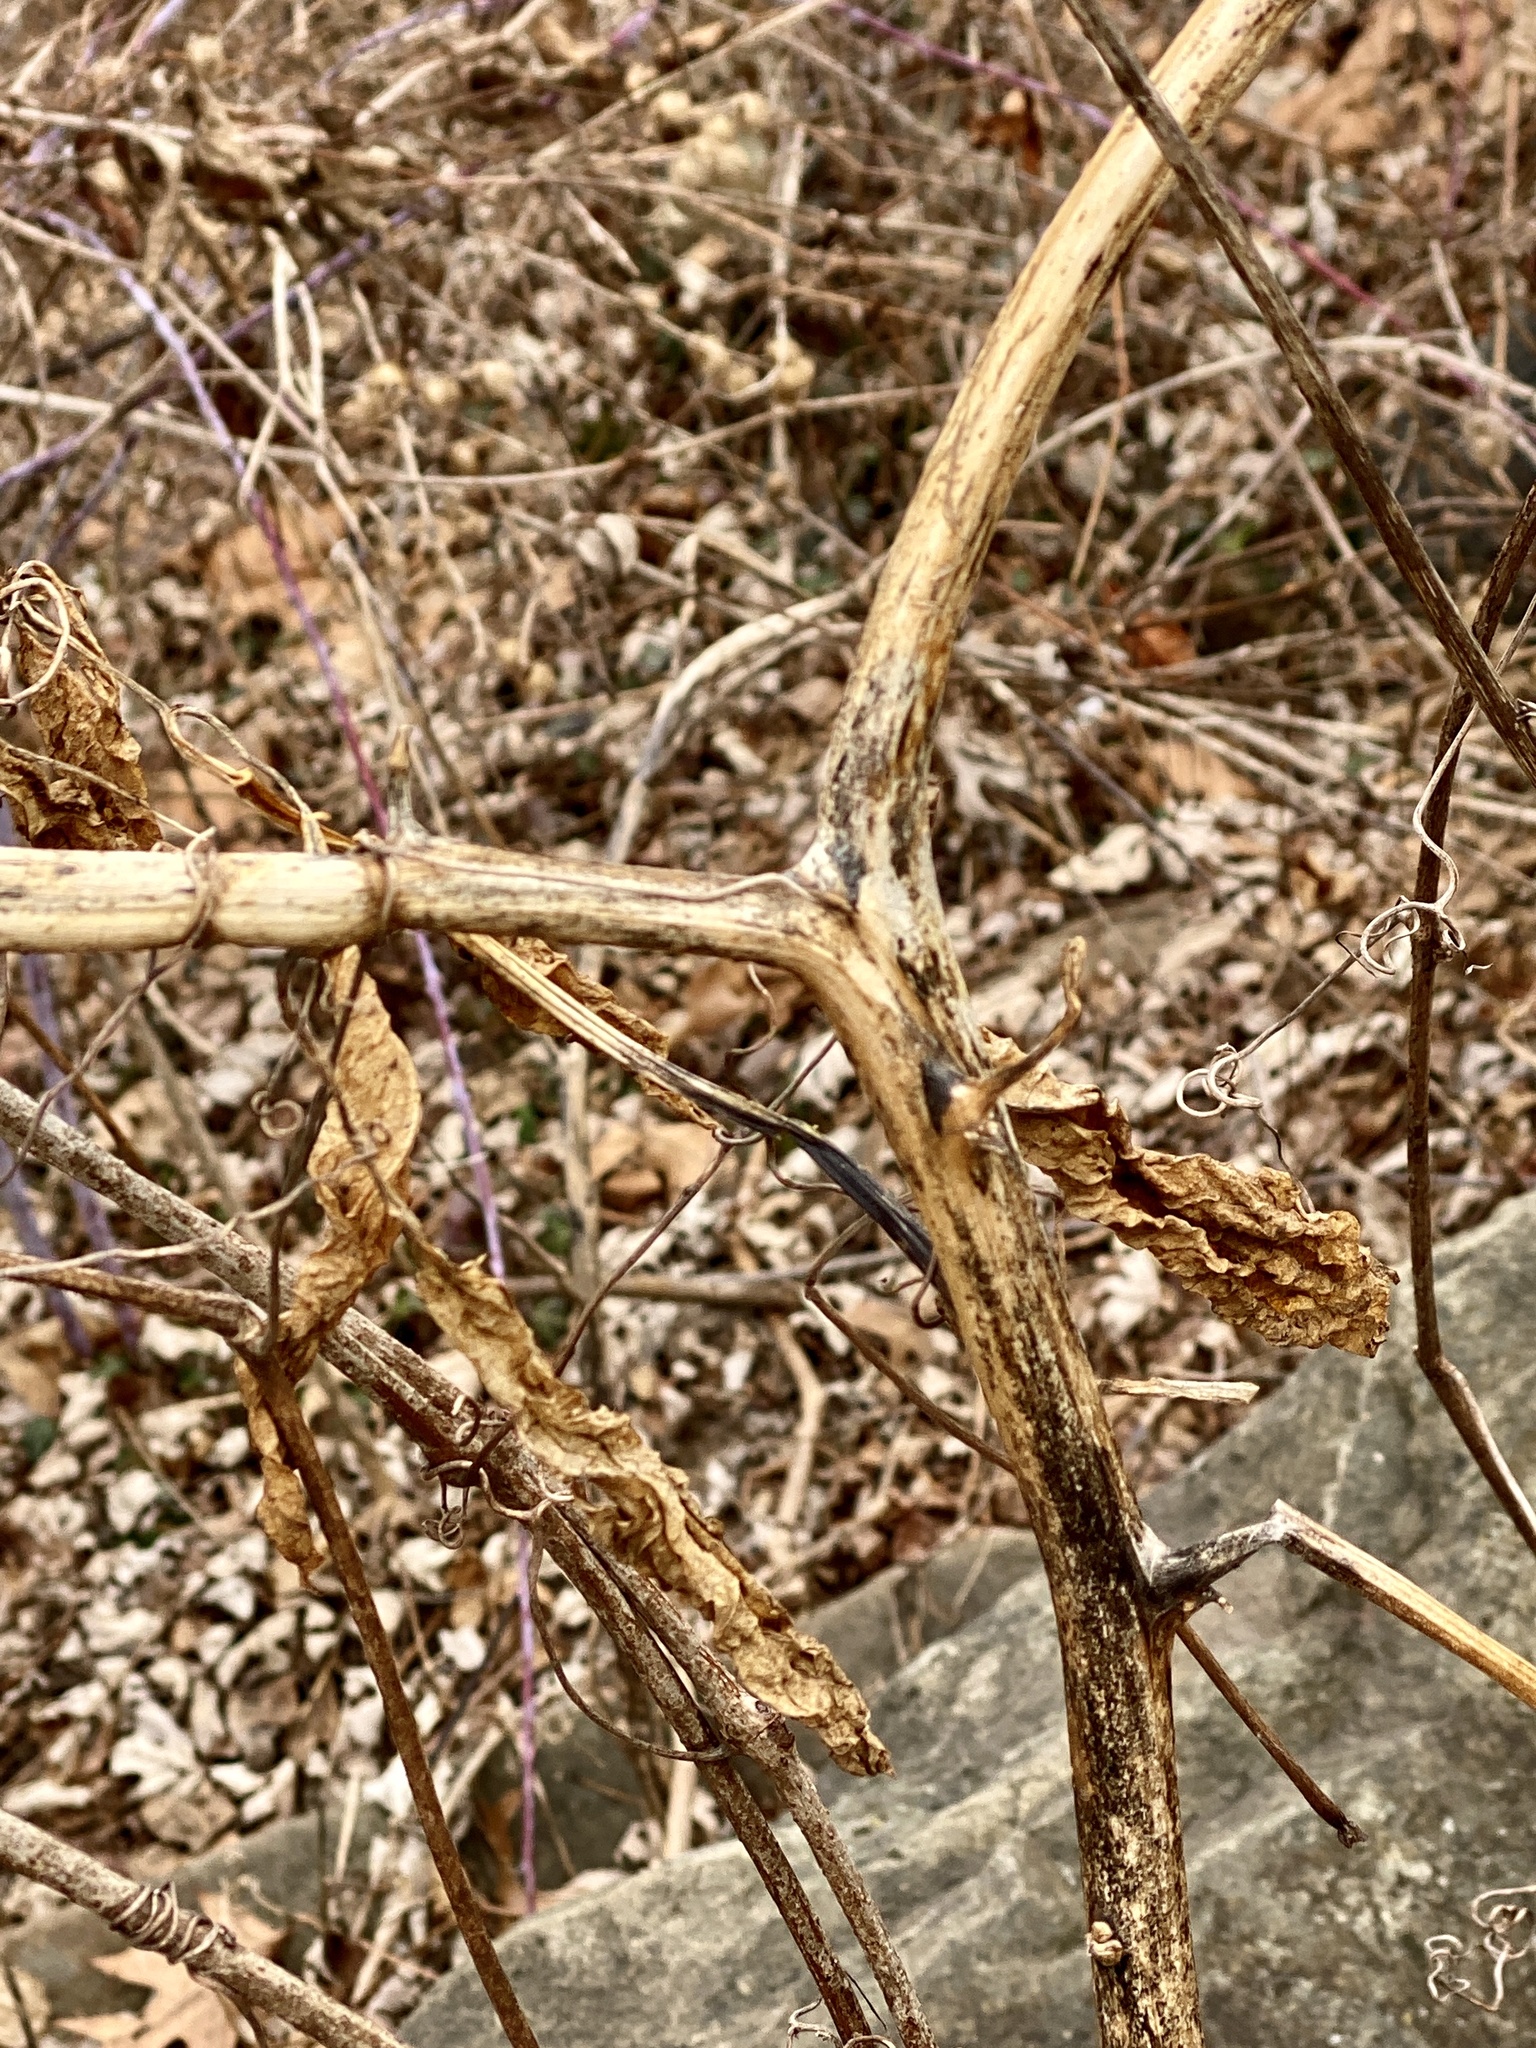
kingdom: Plantae
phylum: Tracheophyta
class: Magnoliopsida
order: Caryophyllales
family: Phytolaccaceae
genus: Phytolacca
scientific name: Phytolacca americana
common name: American pokeweed
